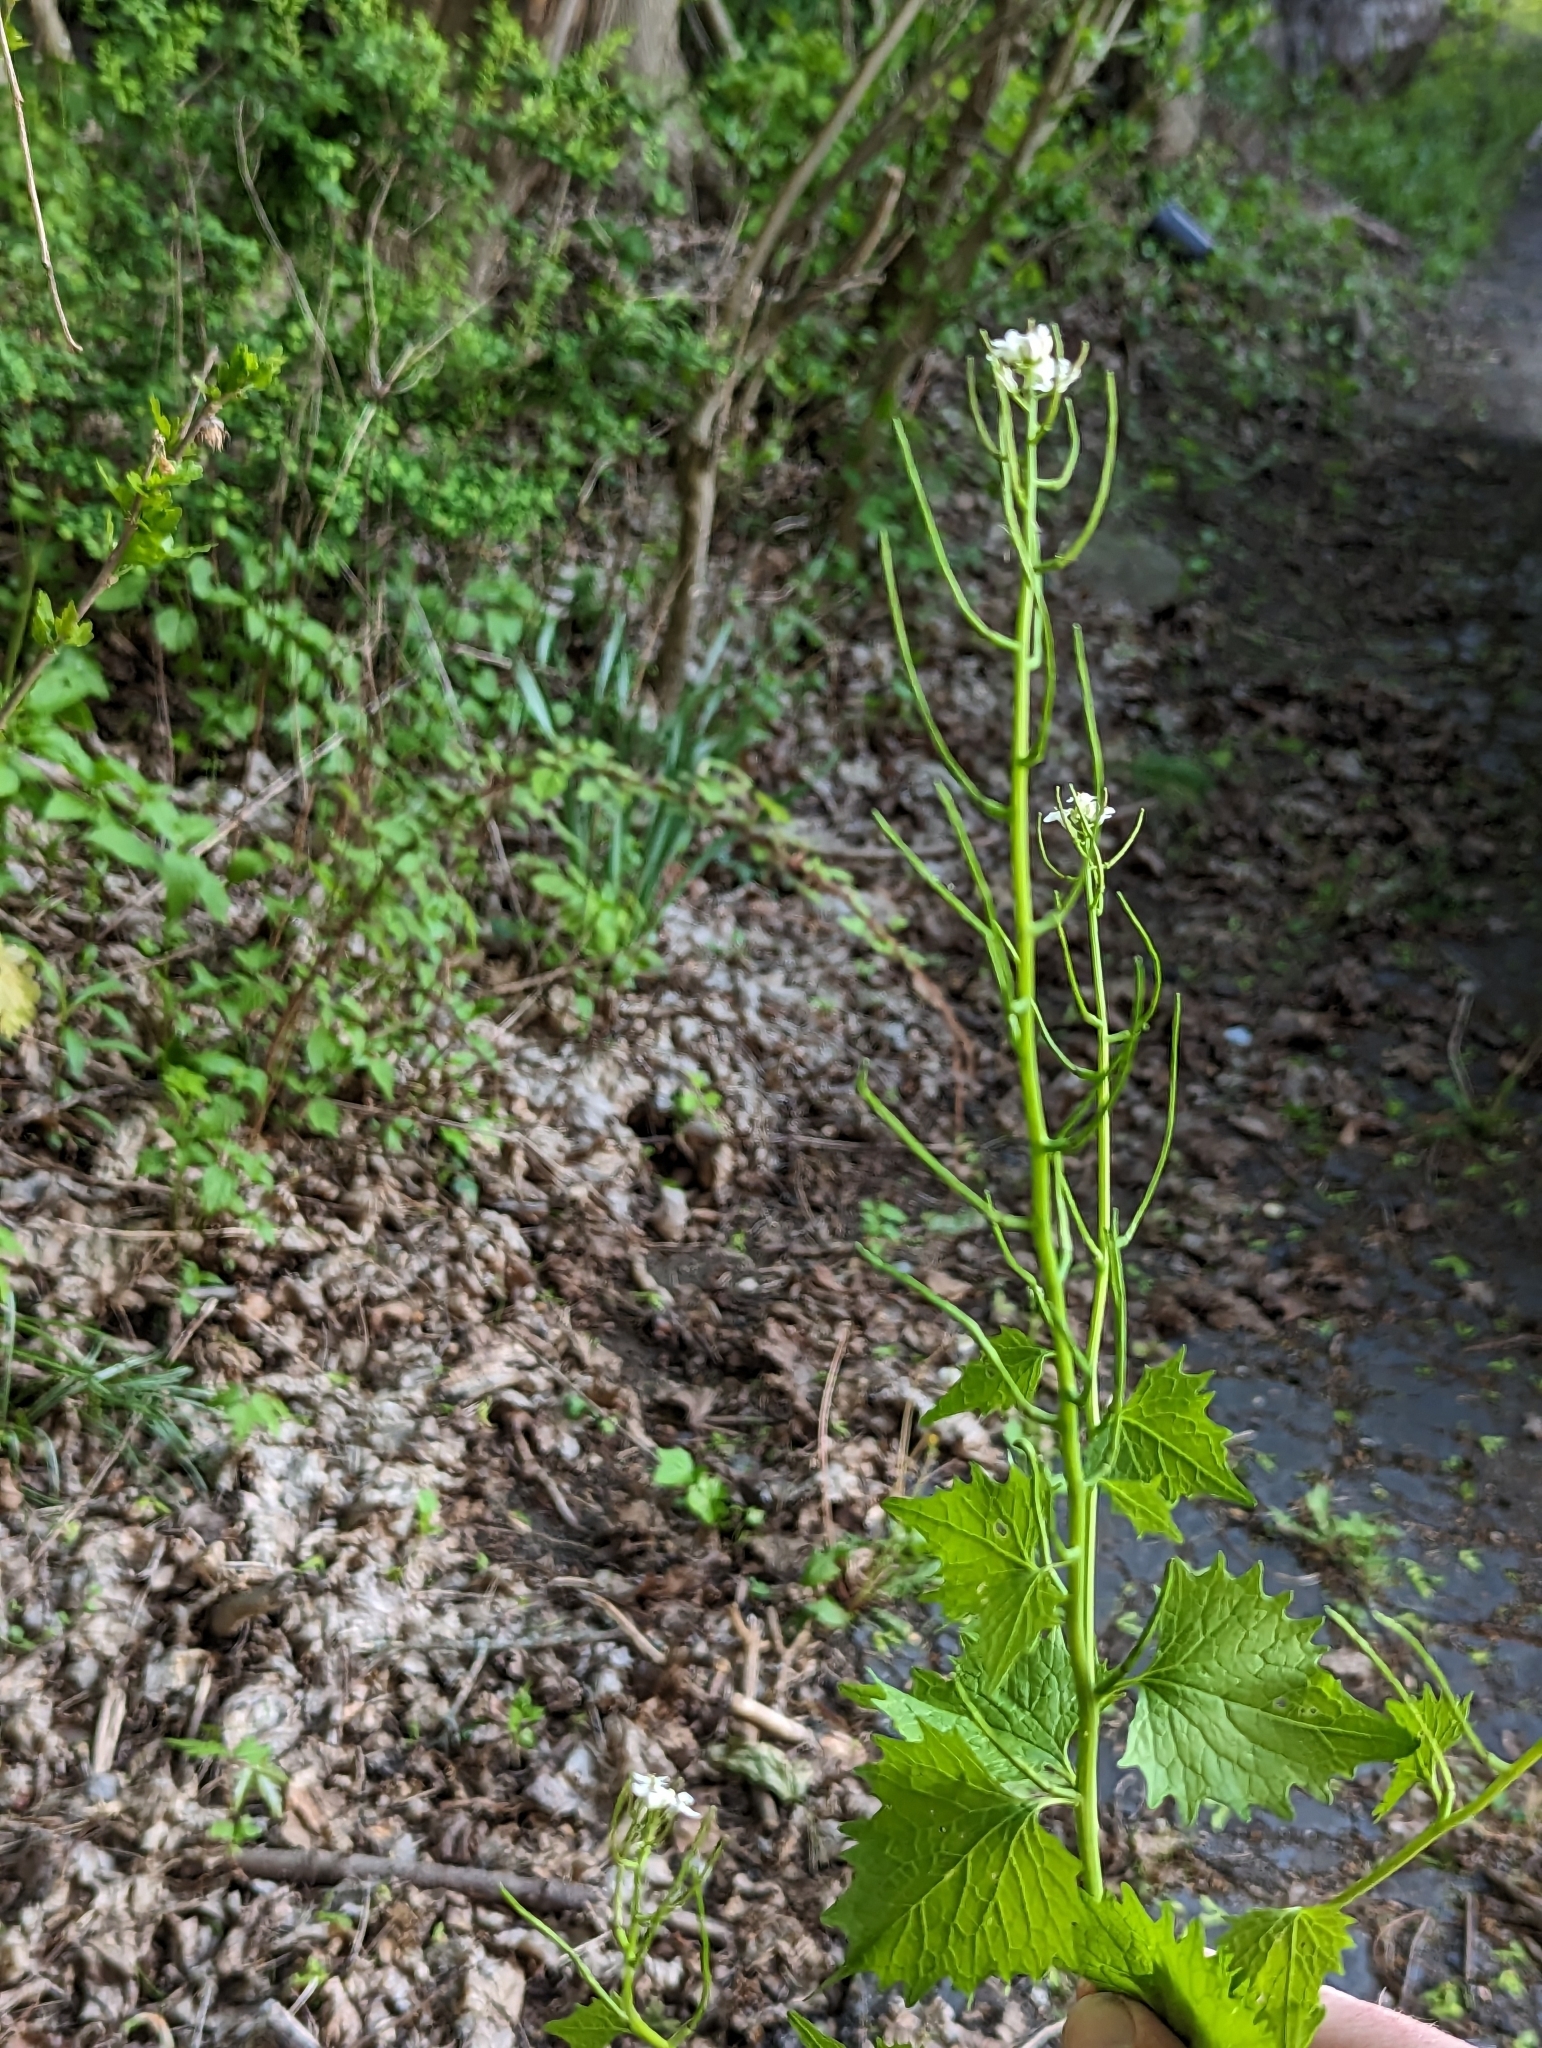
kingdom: Plantae
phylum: Tracheophyta
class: Magnoliopsida
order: Brassicales
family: Brassicaceae
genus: Alliaria
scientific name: Alliaria petiolata
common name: Garlic mustard
